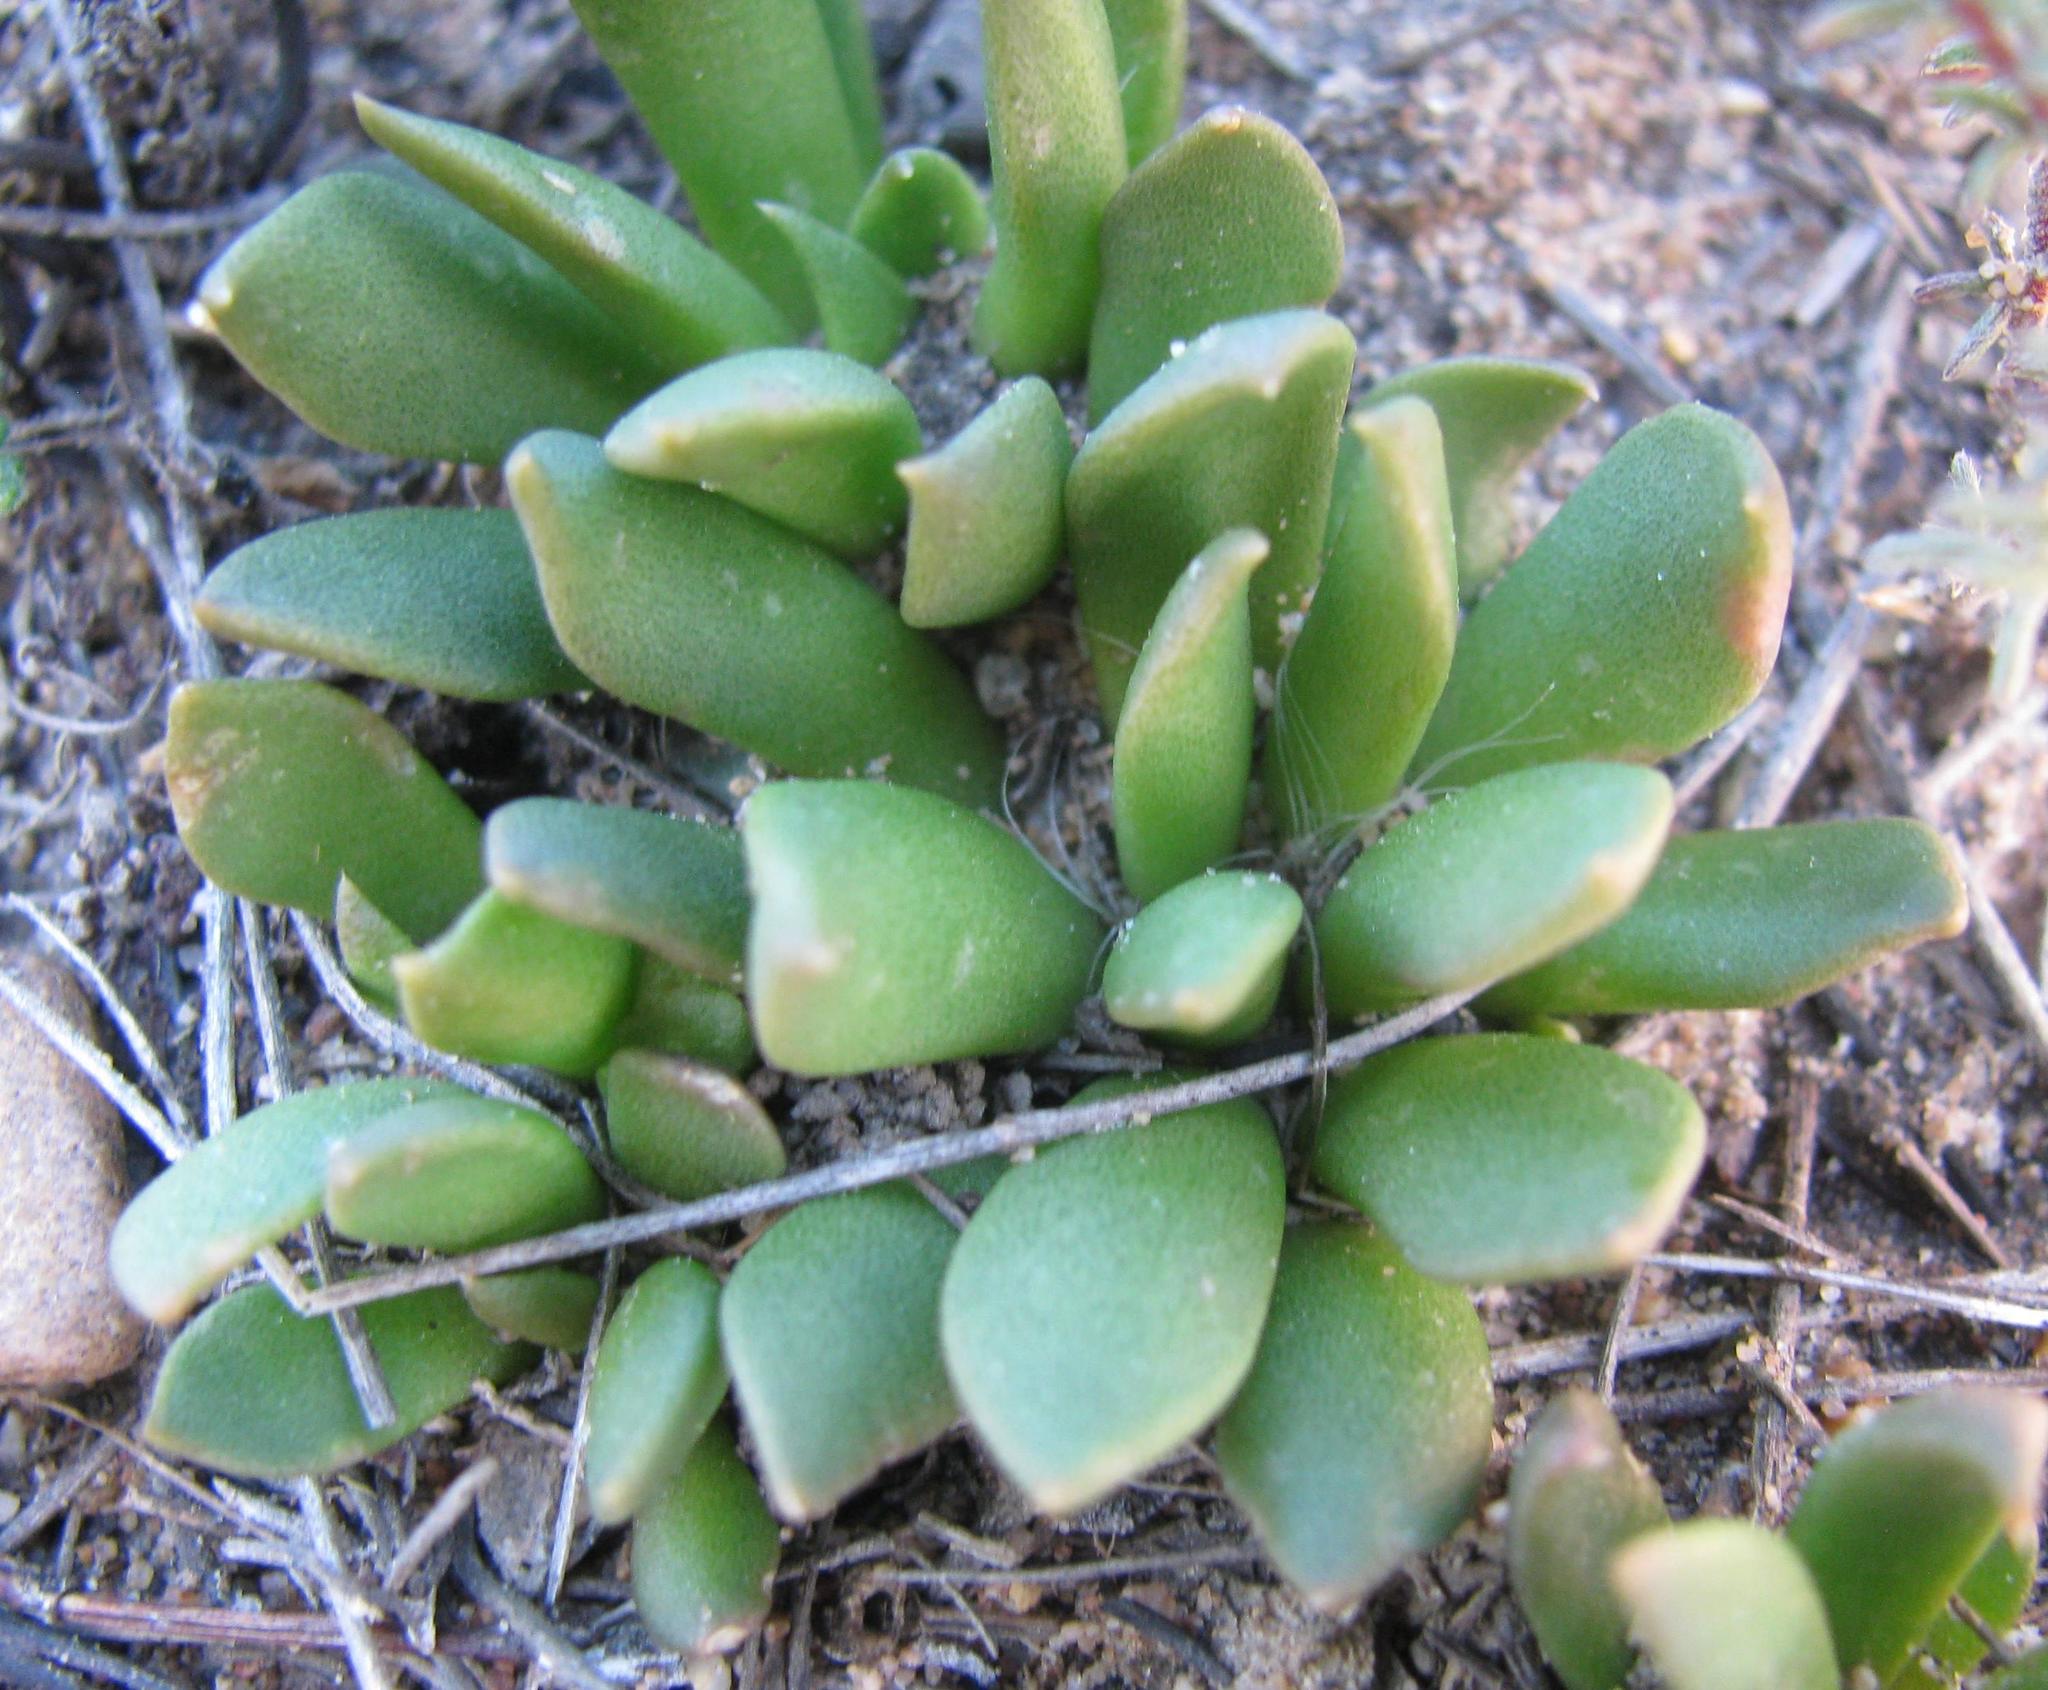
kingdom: Plantae
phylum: Tracheophyta
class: Magnoliopsida
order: Caryophyllales
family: Anacampserotaceae
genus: Anacampseros
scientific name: Anacampseros lanceolata
